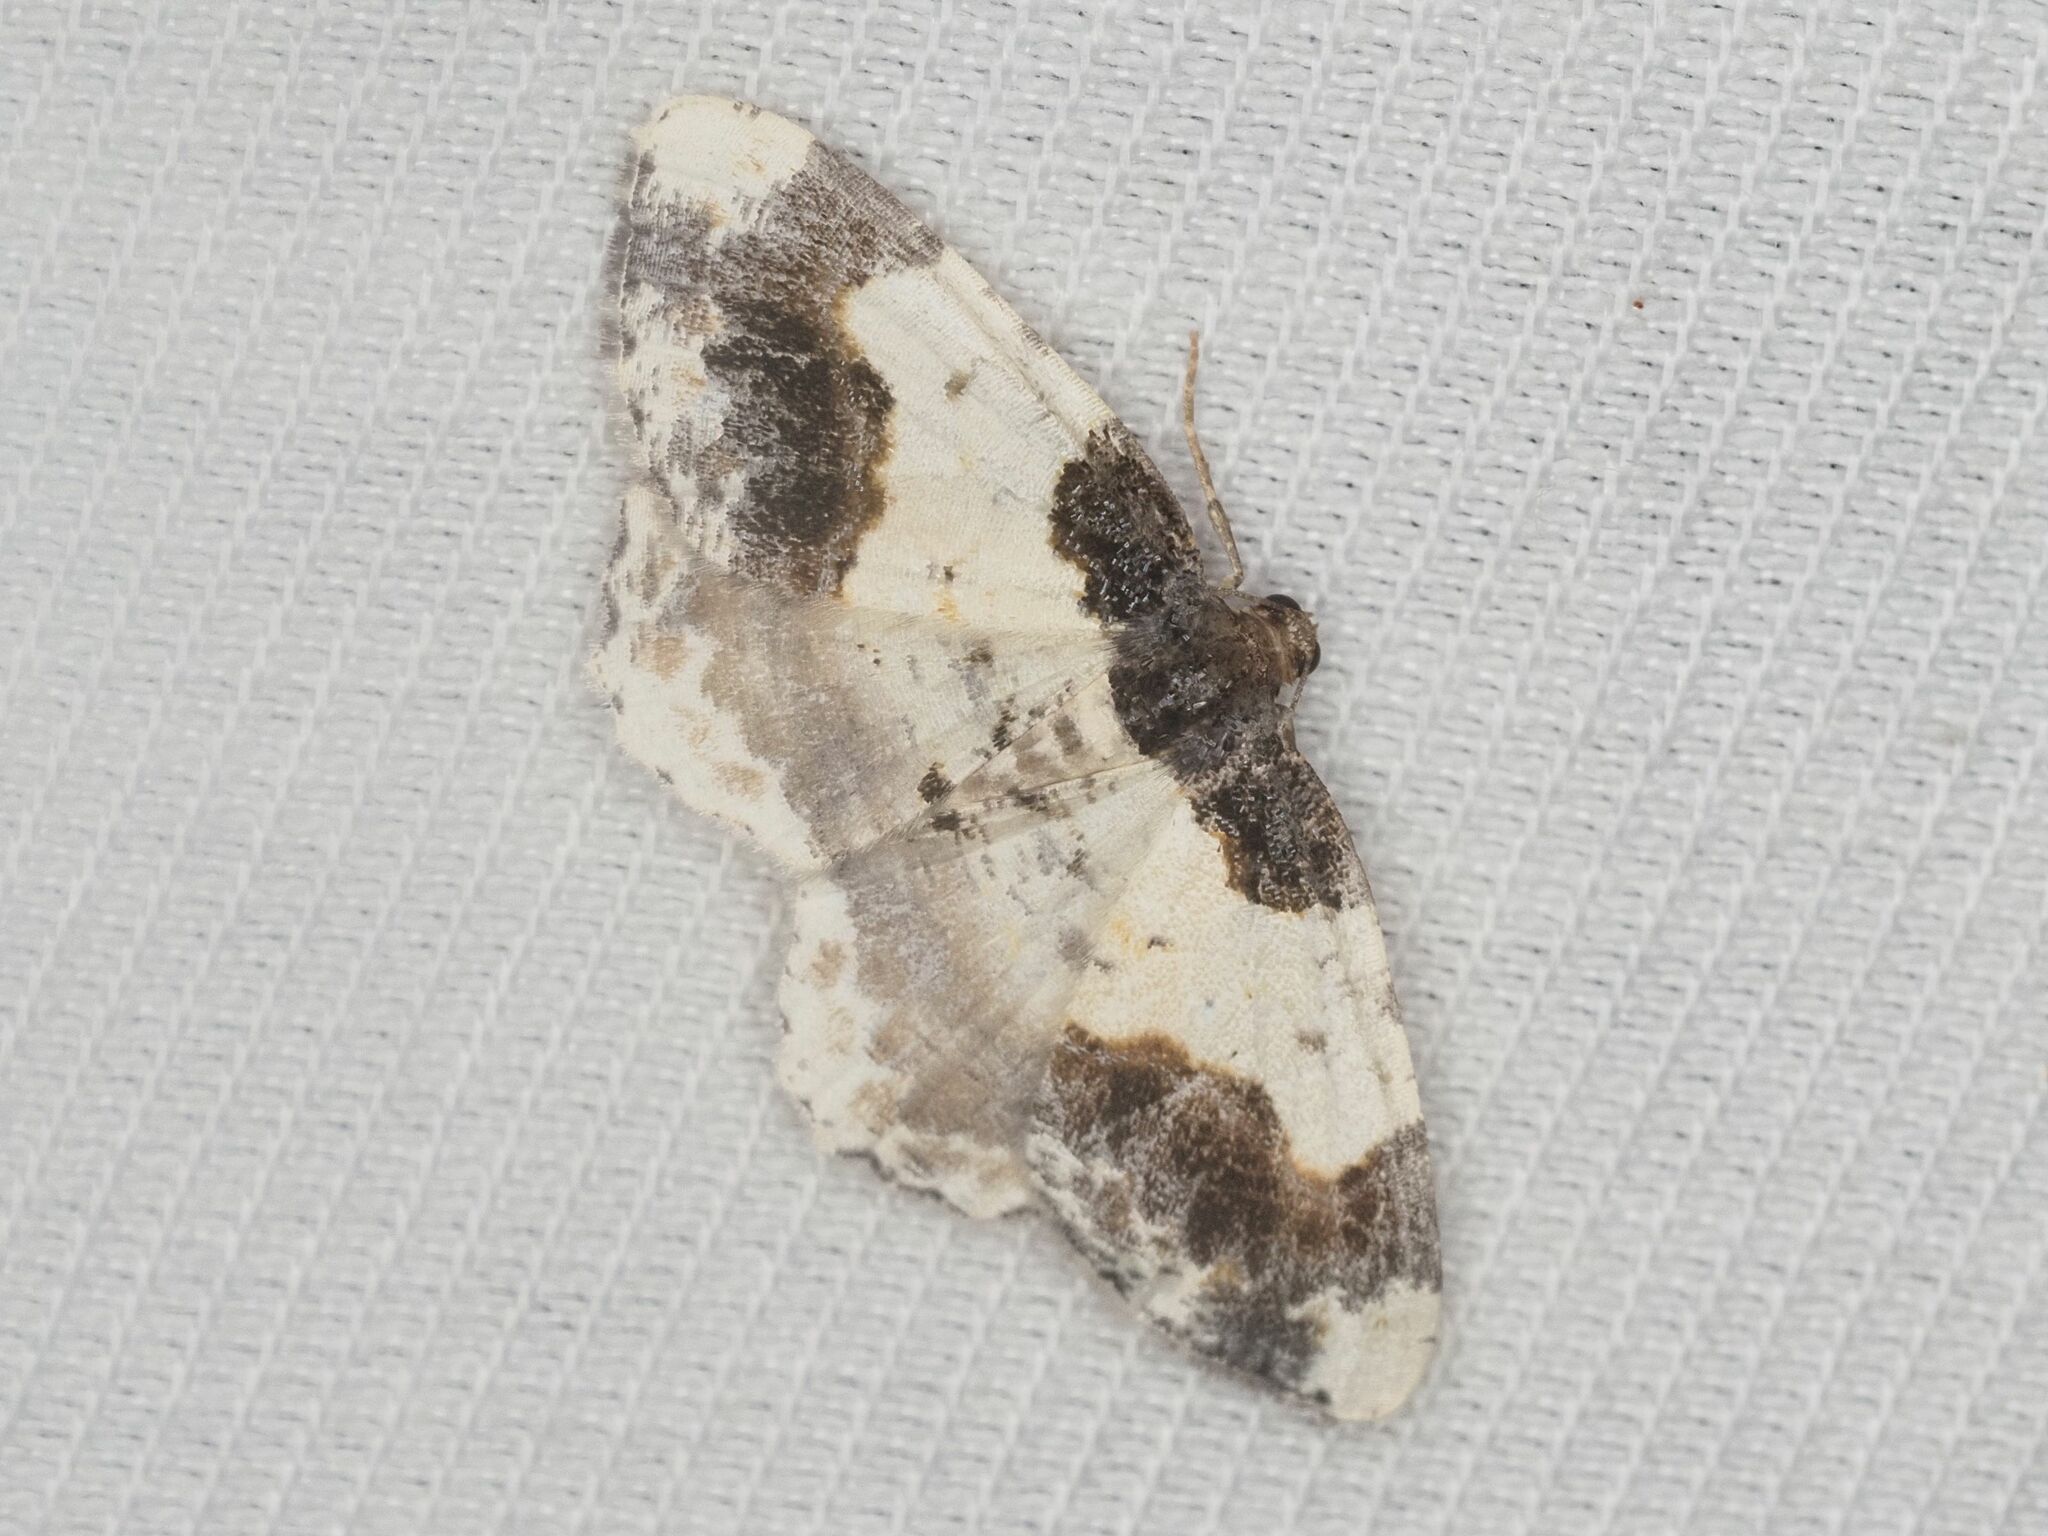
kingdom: Animalia
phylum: Arthropoda
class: Insecta
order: Lepidoptera
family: Geometridae
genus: Ligdia
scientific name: Ligdia adustata
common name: Scorched carpet
